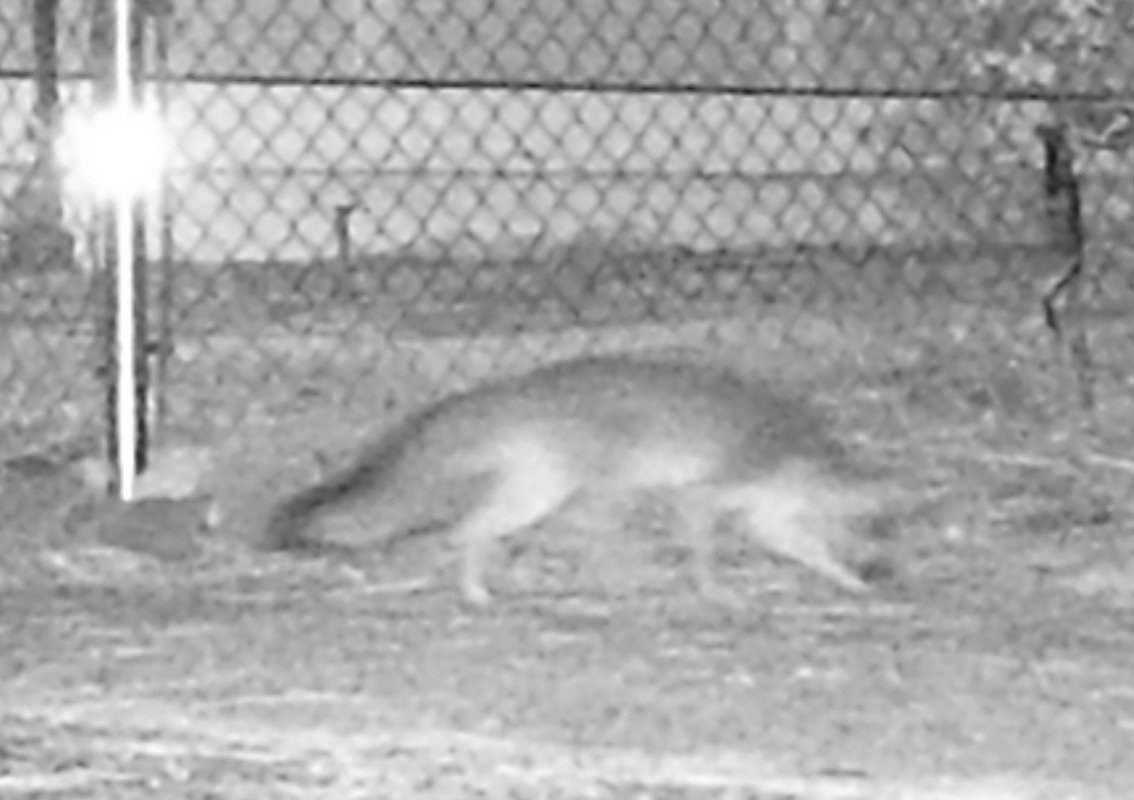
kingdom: Animalia
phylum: Chordata
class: Mammalia
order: Carnivora
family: Canidae
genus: Urocyon
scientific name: Urocyon cinereoargenteus
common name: Gray fox
